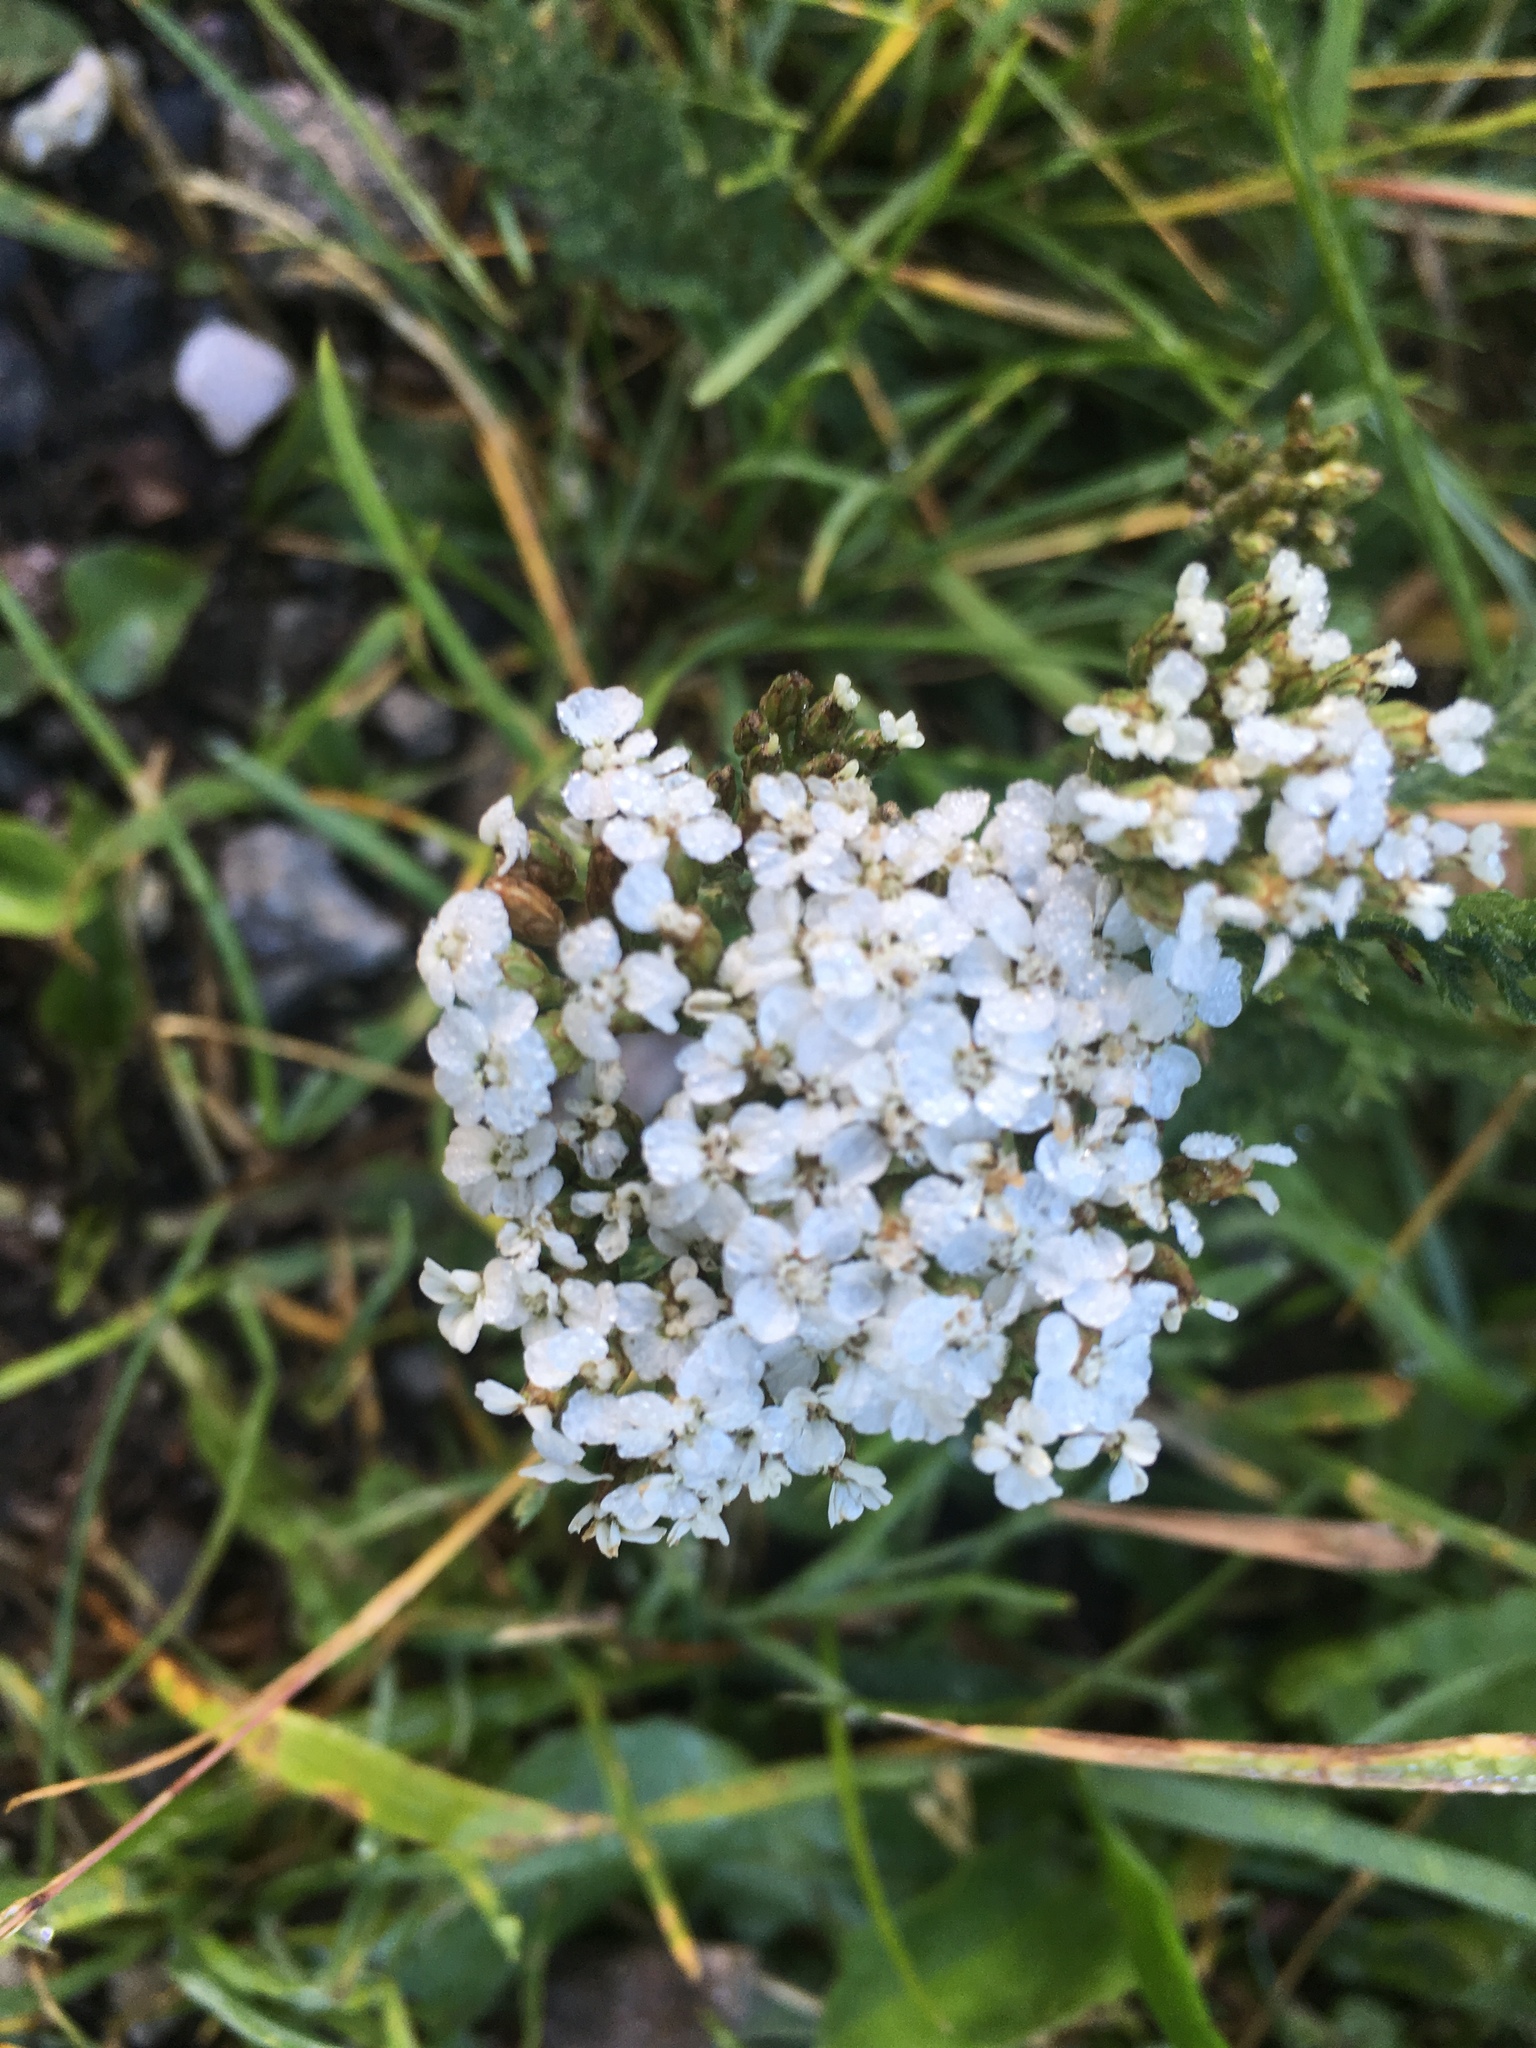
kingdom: Plantae
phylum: Tracheophyta
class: Magnoliopsida
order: Asterales
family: Asteraceae
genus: Achillea
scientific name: Achillea millefolium
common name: Yarrow
